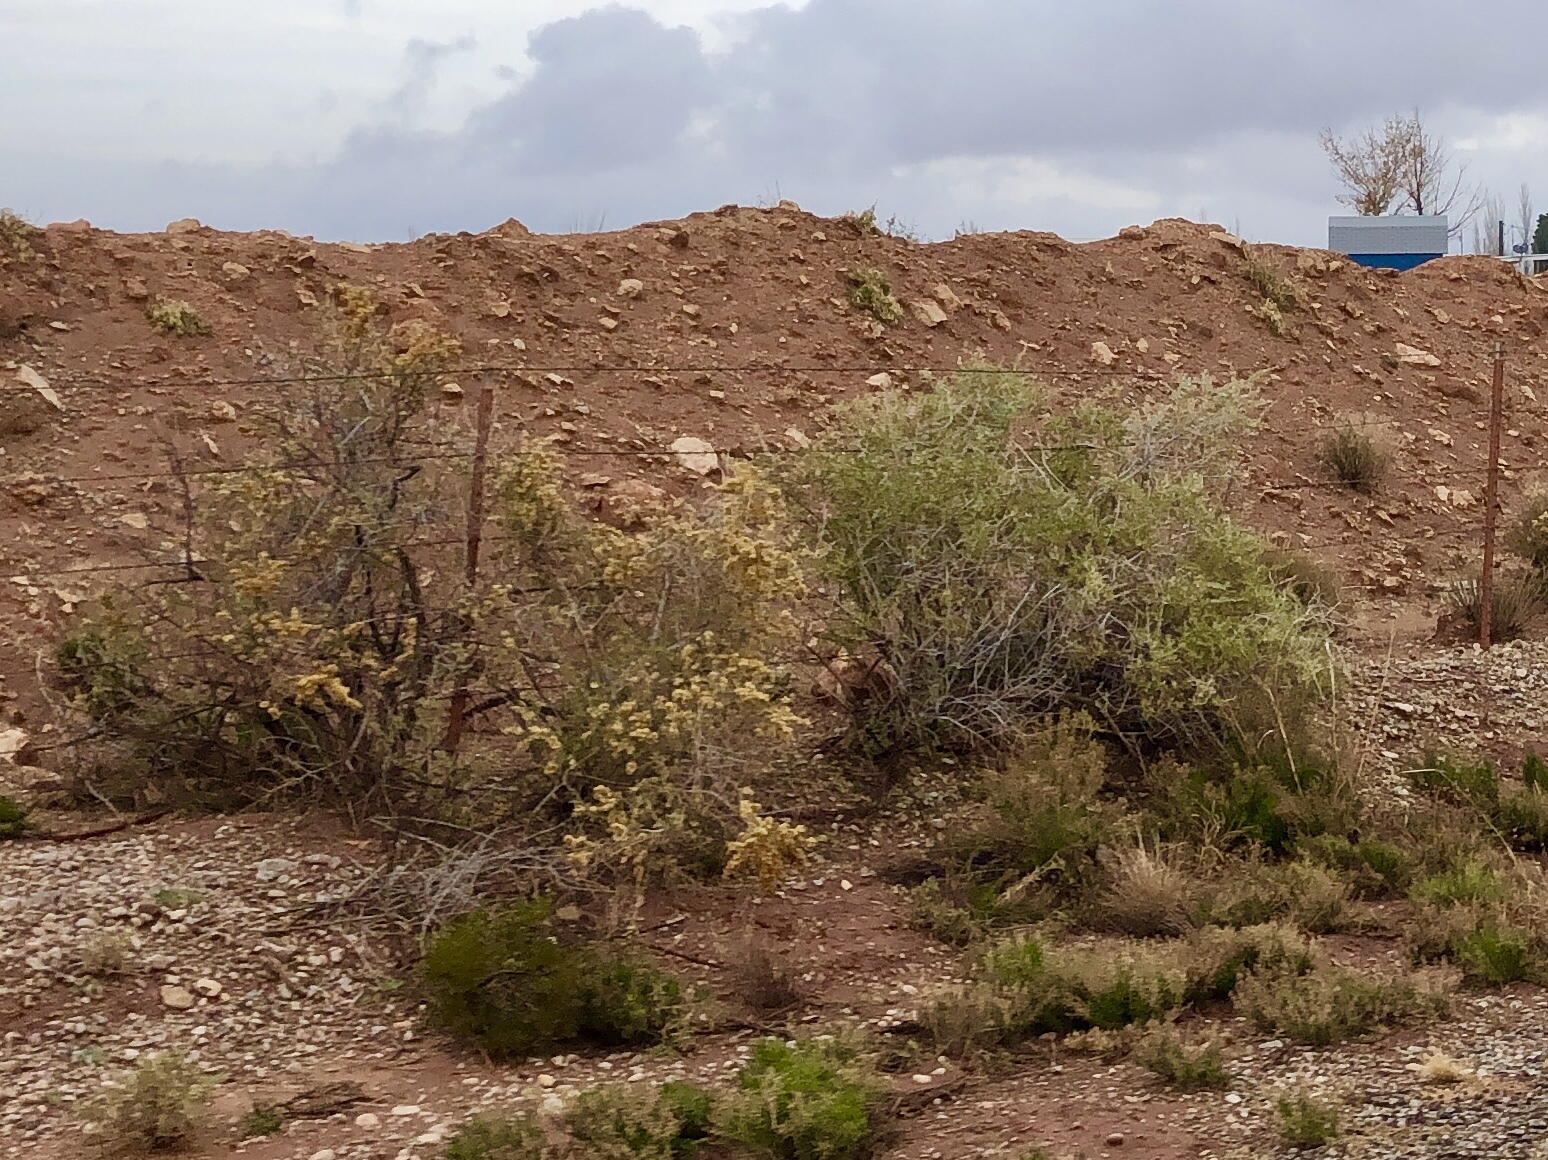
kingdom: Plantae
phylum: Tracheophyta
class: Magnoliopsida
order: Caryophyllales
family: Amaranthaceae
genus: Atriplex
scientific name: Atriplex canescens
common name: Four-wing saltbush
